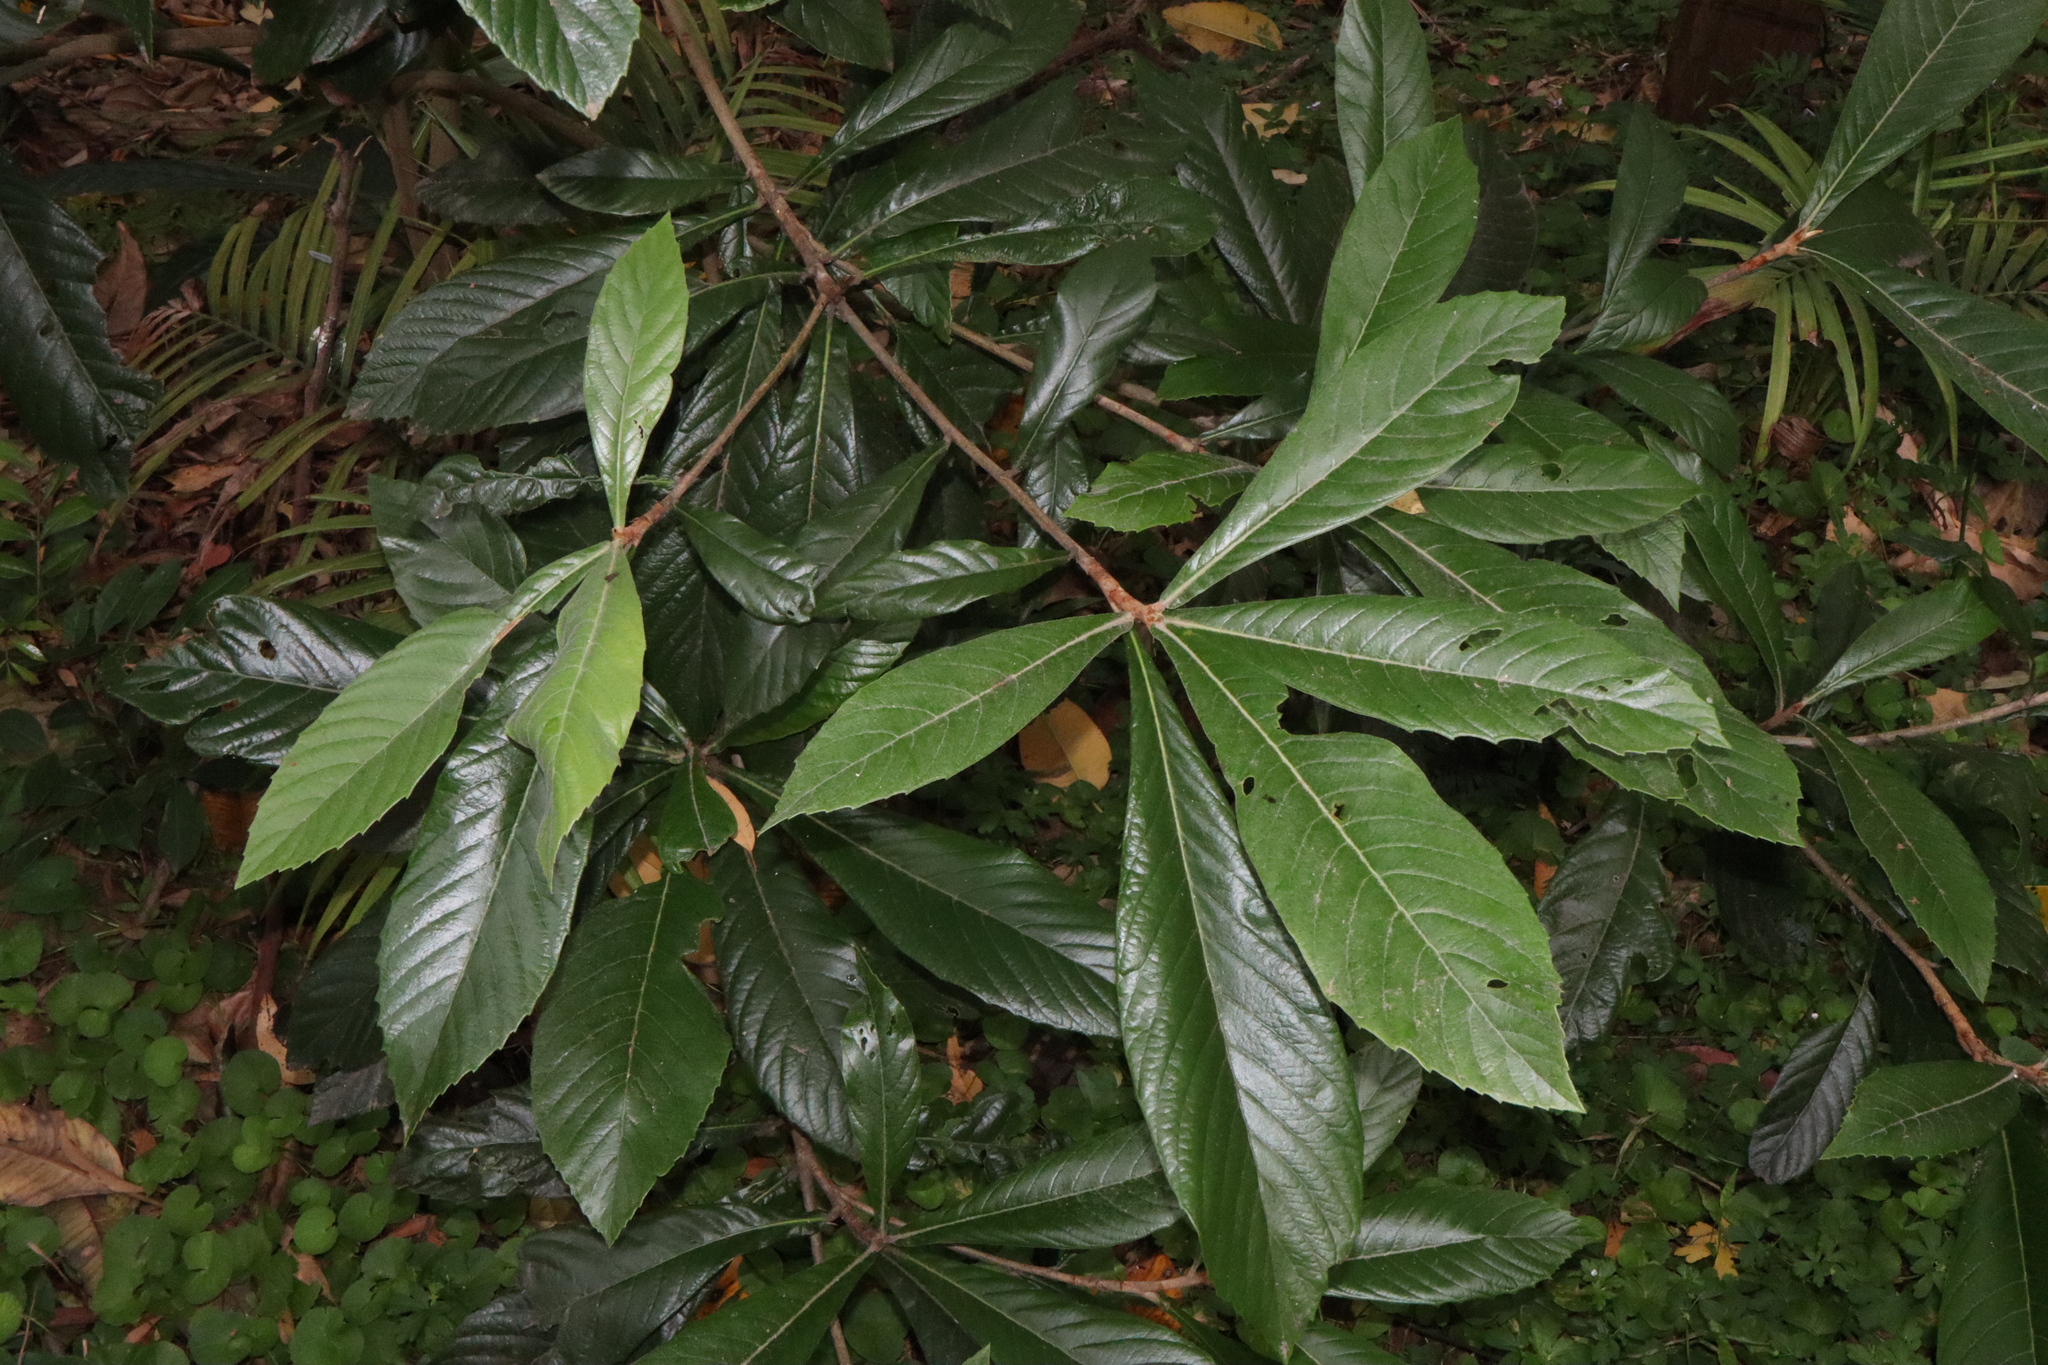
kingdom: Plantae
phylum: Tracheophyta
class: Magnoliopsida
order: Rosales
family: Rosaceae
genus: Rhaphiolepis
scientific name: Rhaphiolepis bibas
